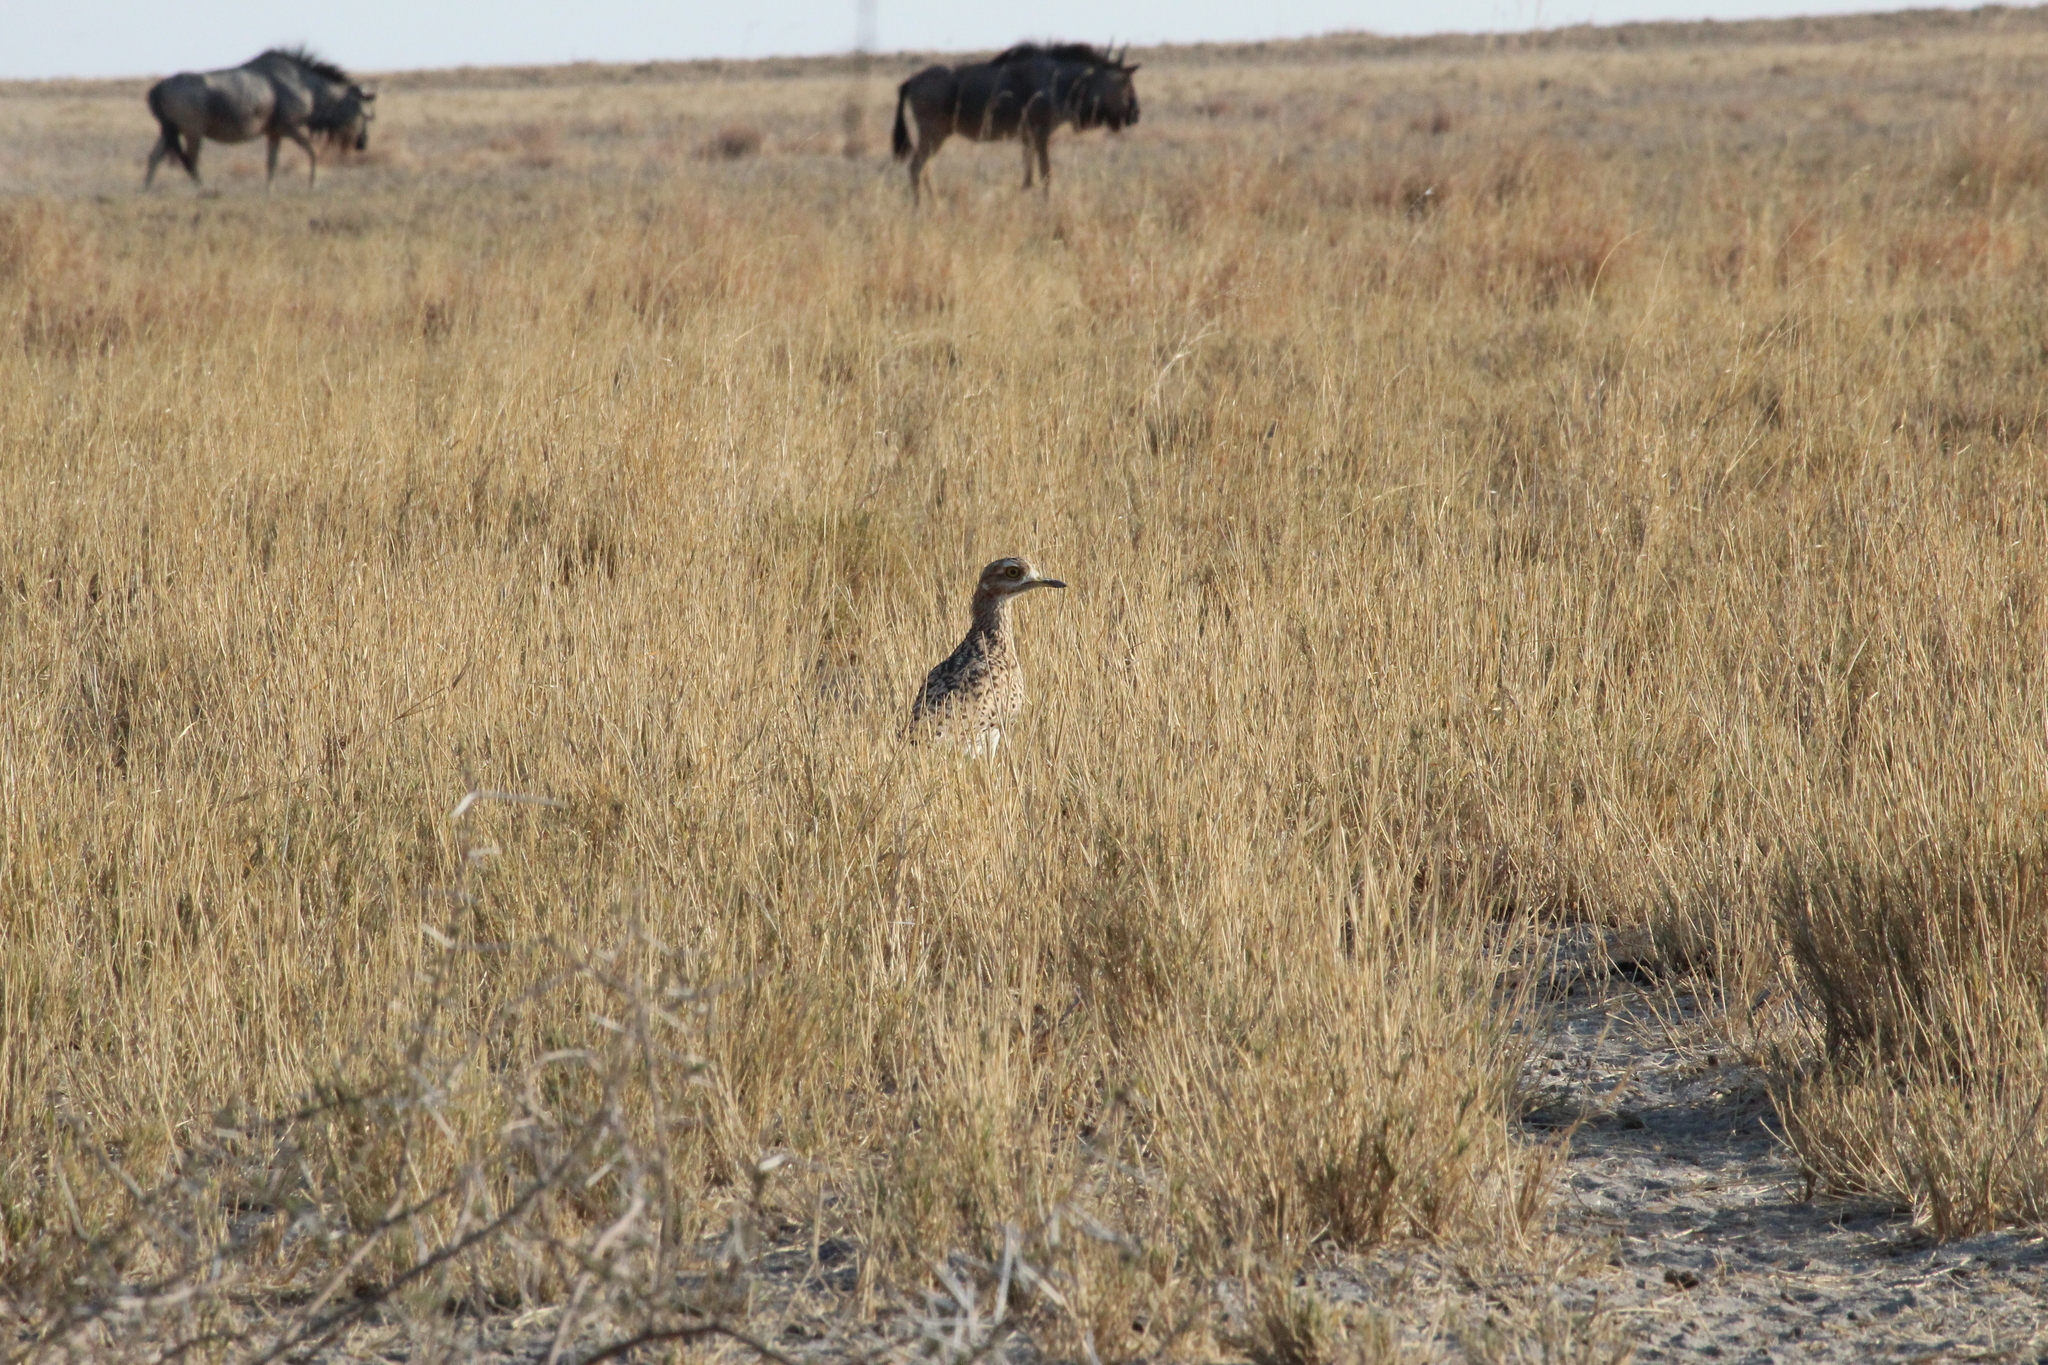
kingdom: Animalia
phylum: Chordata
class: Aves
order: Charadriiformes
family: Burhinidae
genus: Burhinus
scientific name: Burhinus capensis
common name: Spotted thick-knee
